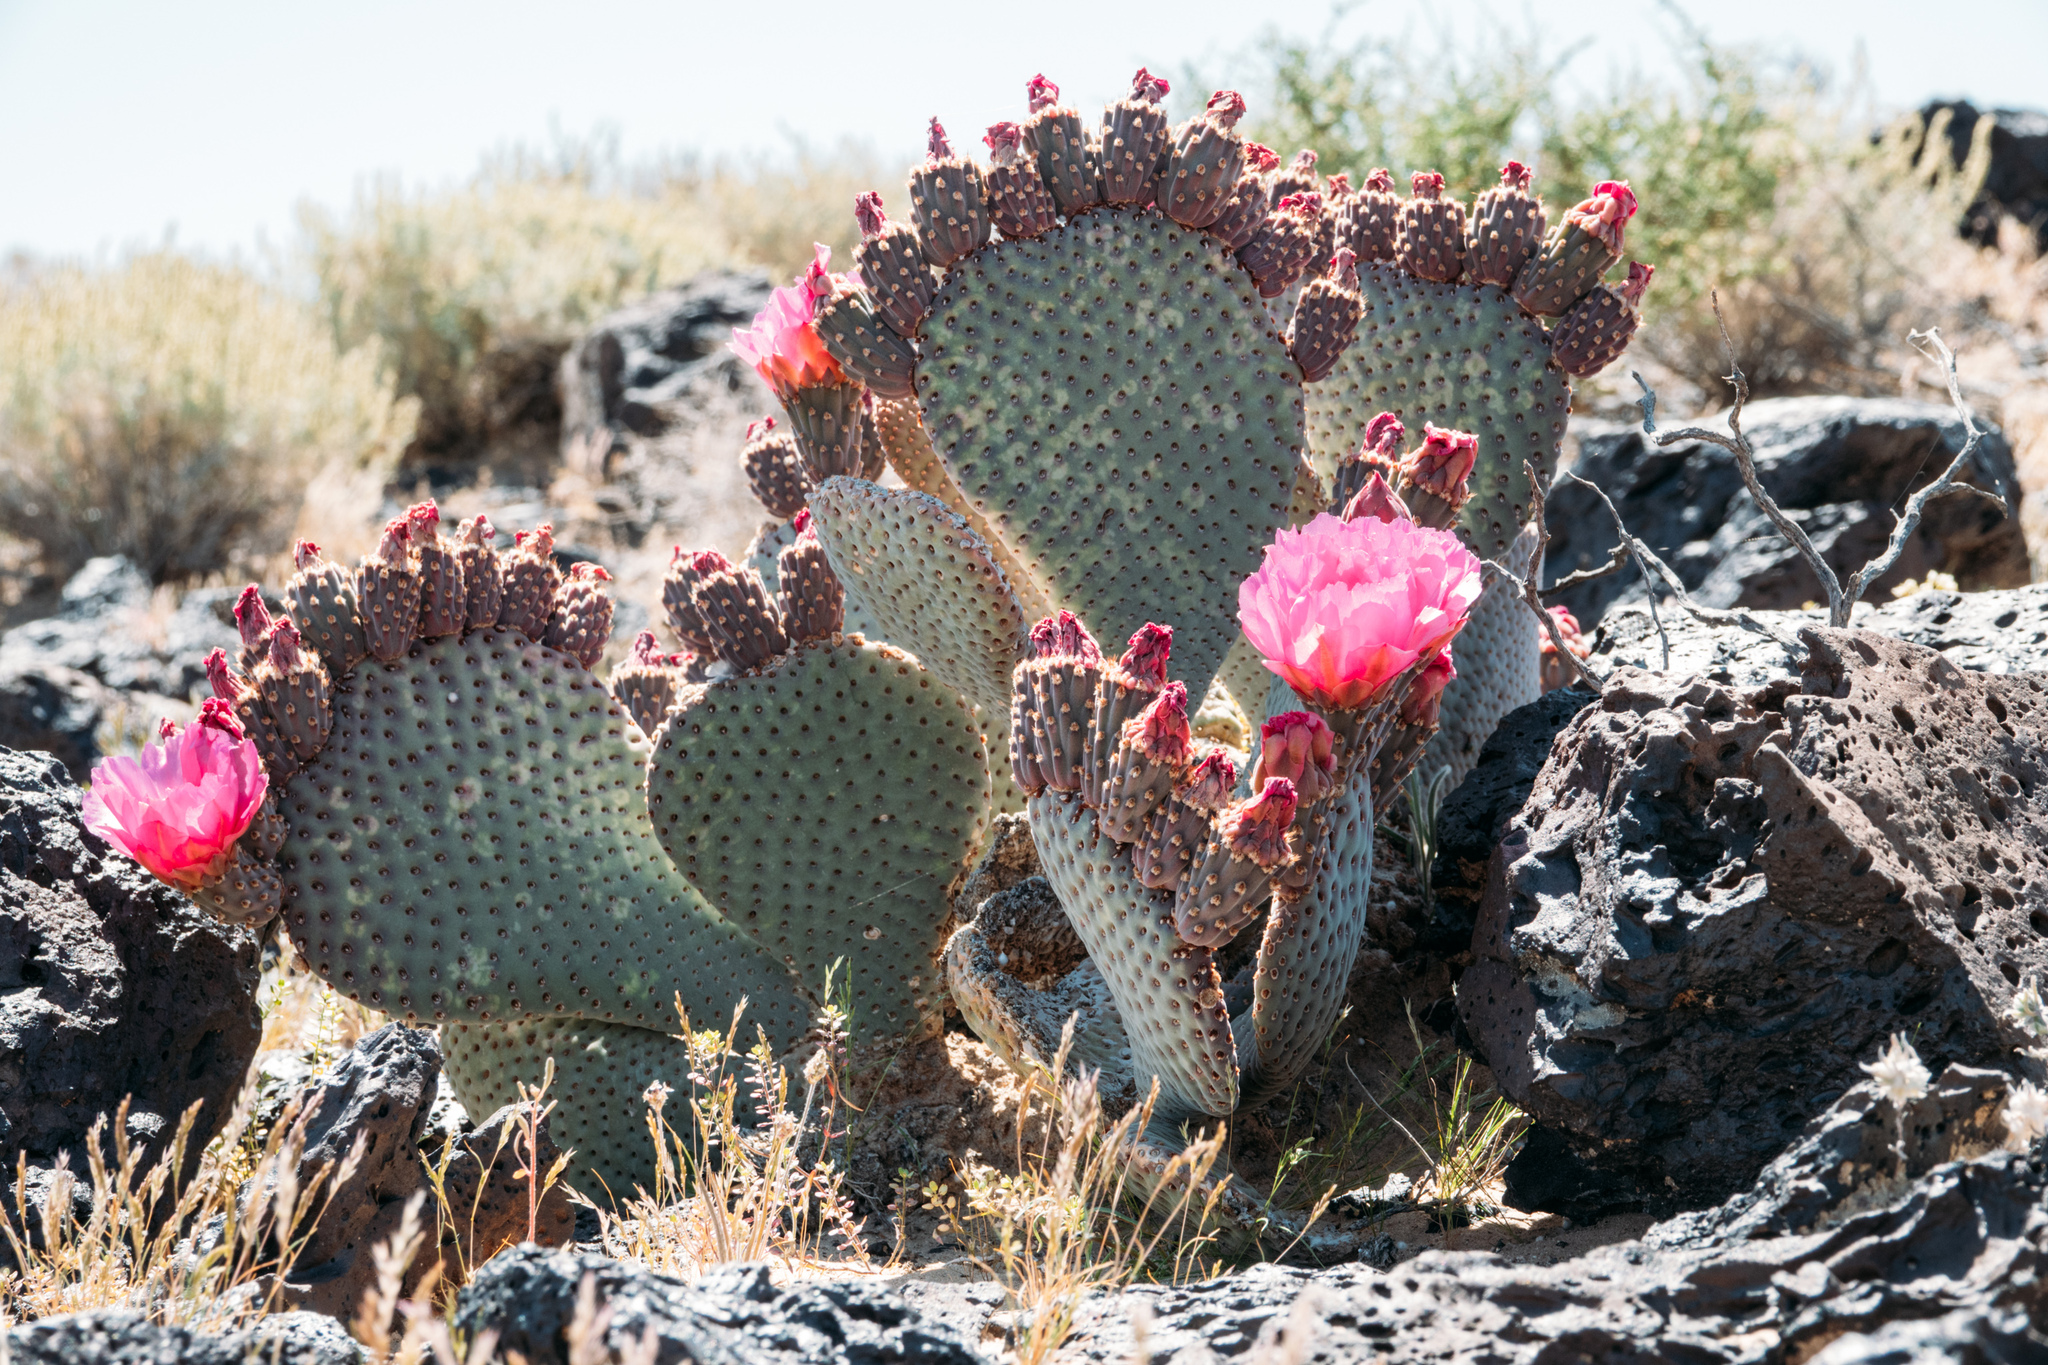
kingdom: Plantae
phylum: Tracheophyta
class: Magnoliopsida
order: Caryophyllales
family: Cactaceae
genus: Opuntia
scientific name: Opuntia basilaris
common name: Beavertail prickly-pear
